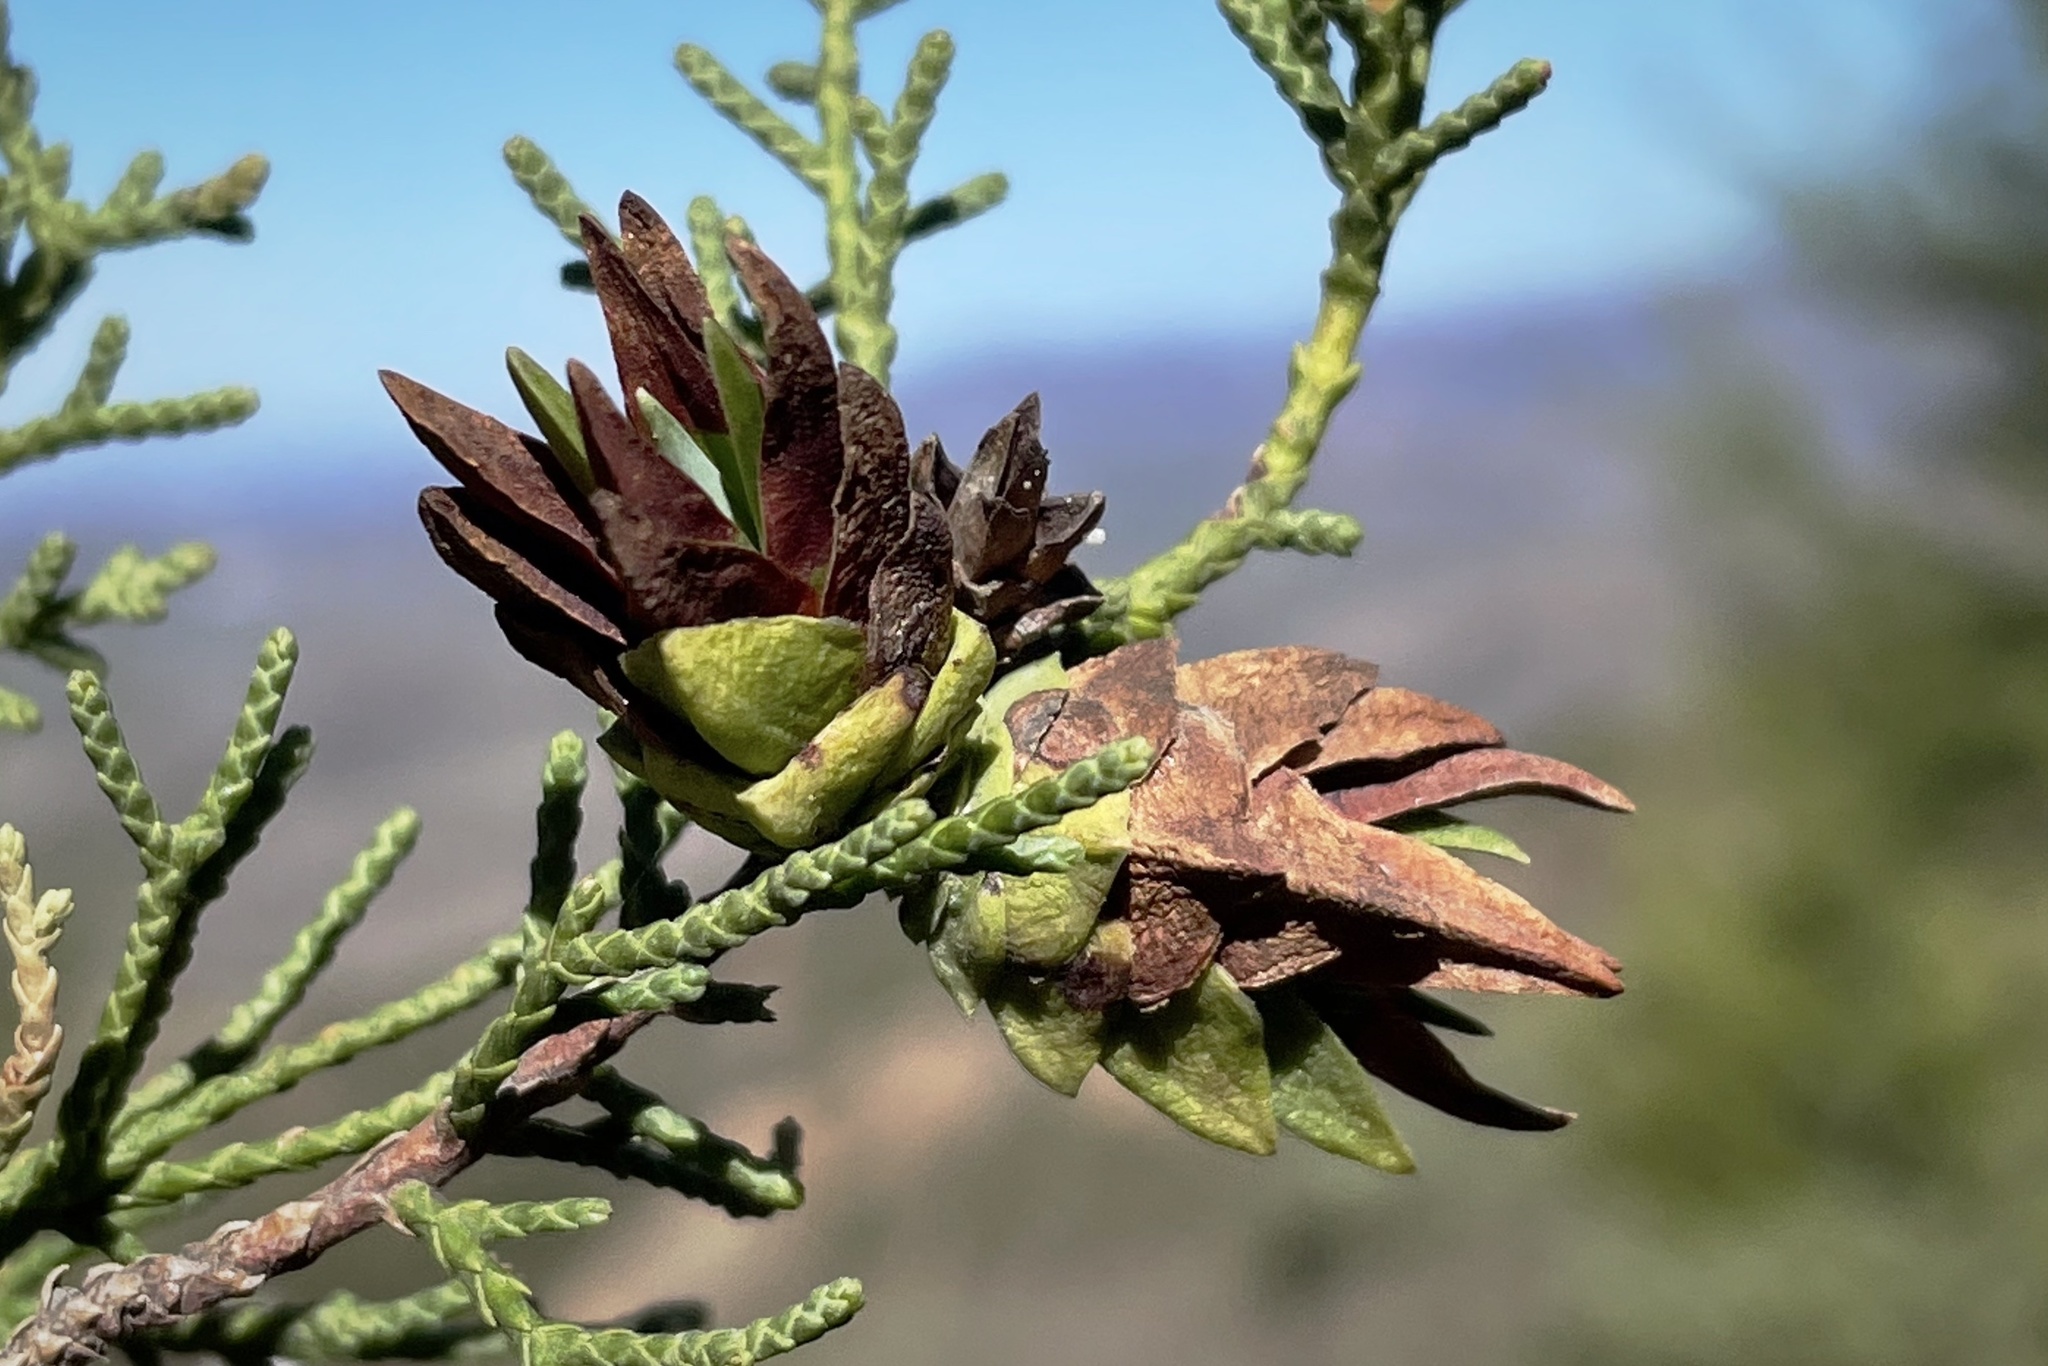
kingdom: Animalia
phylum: Arthropoda
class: Insecta
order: Diptera
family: Cecidomyiidae
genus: Oligotrophus
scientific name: Oligotrophus cupressi
